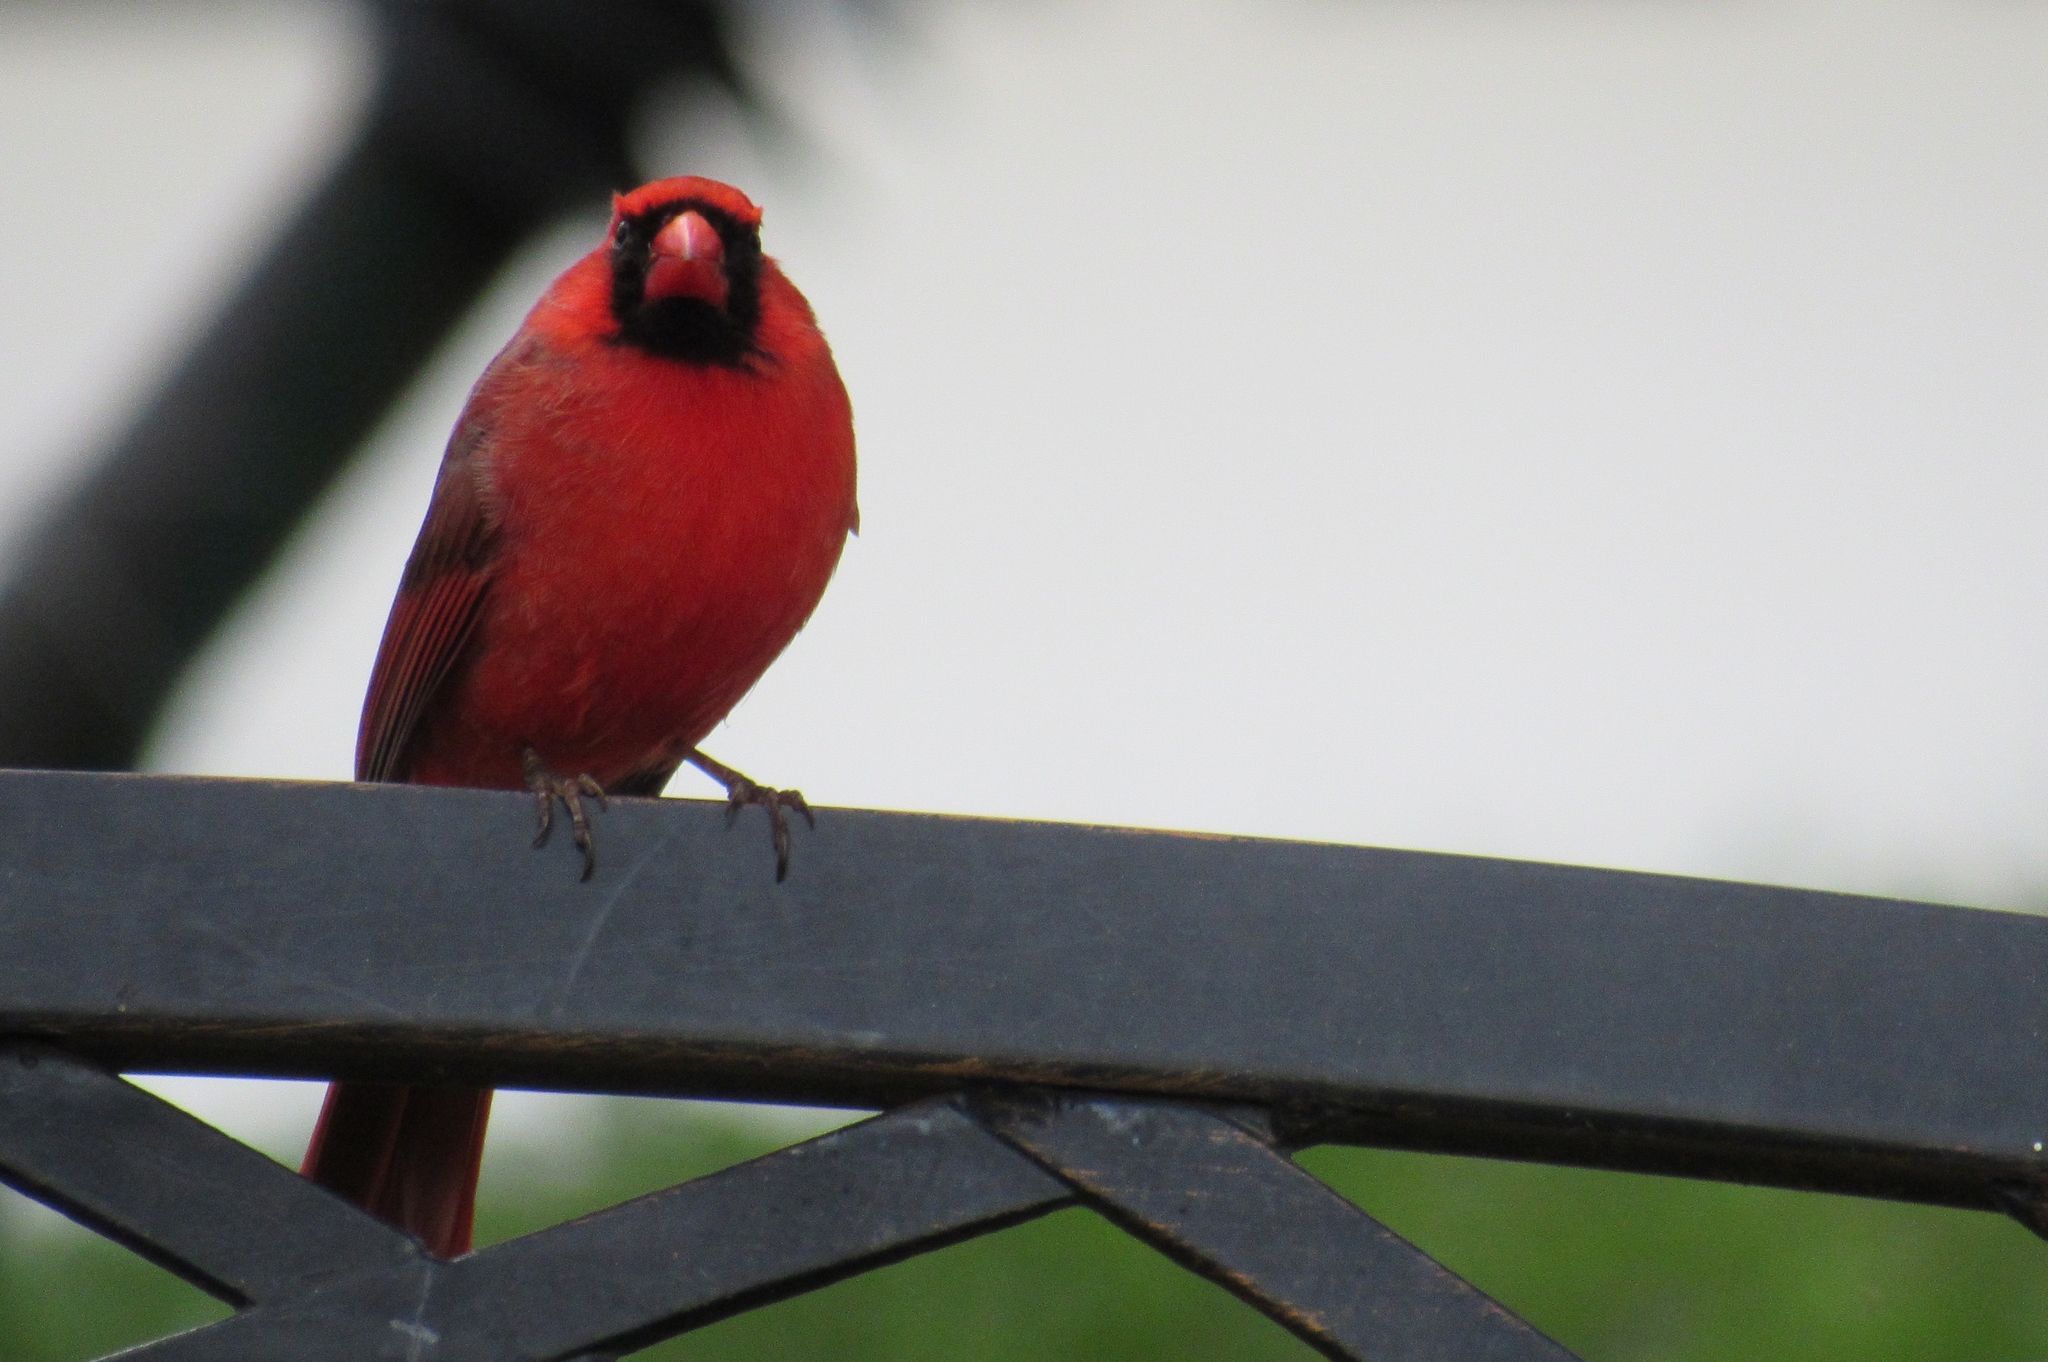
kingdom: Animalia
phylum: Chordata
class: Aves
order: Passeriformes
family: Cardinalidae
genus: Cardinalis
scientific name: Cardinalis cardinalis
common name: Northern cardinal
